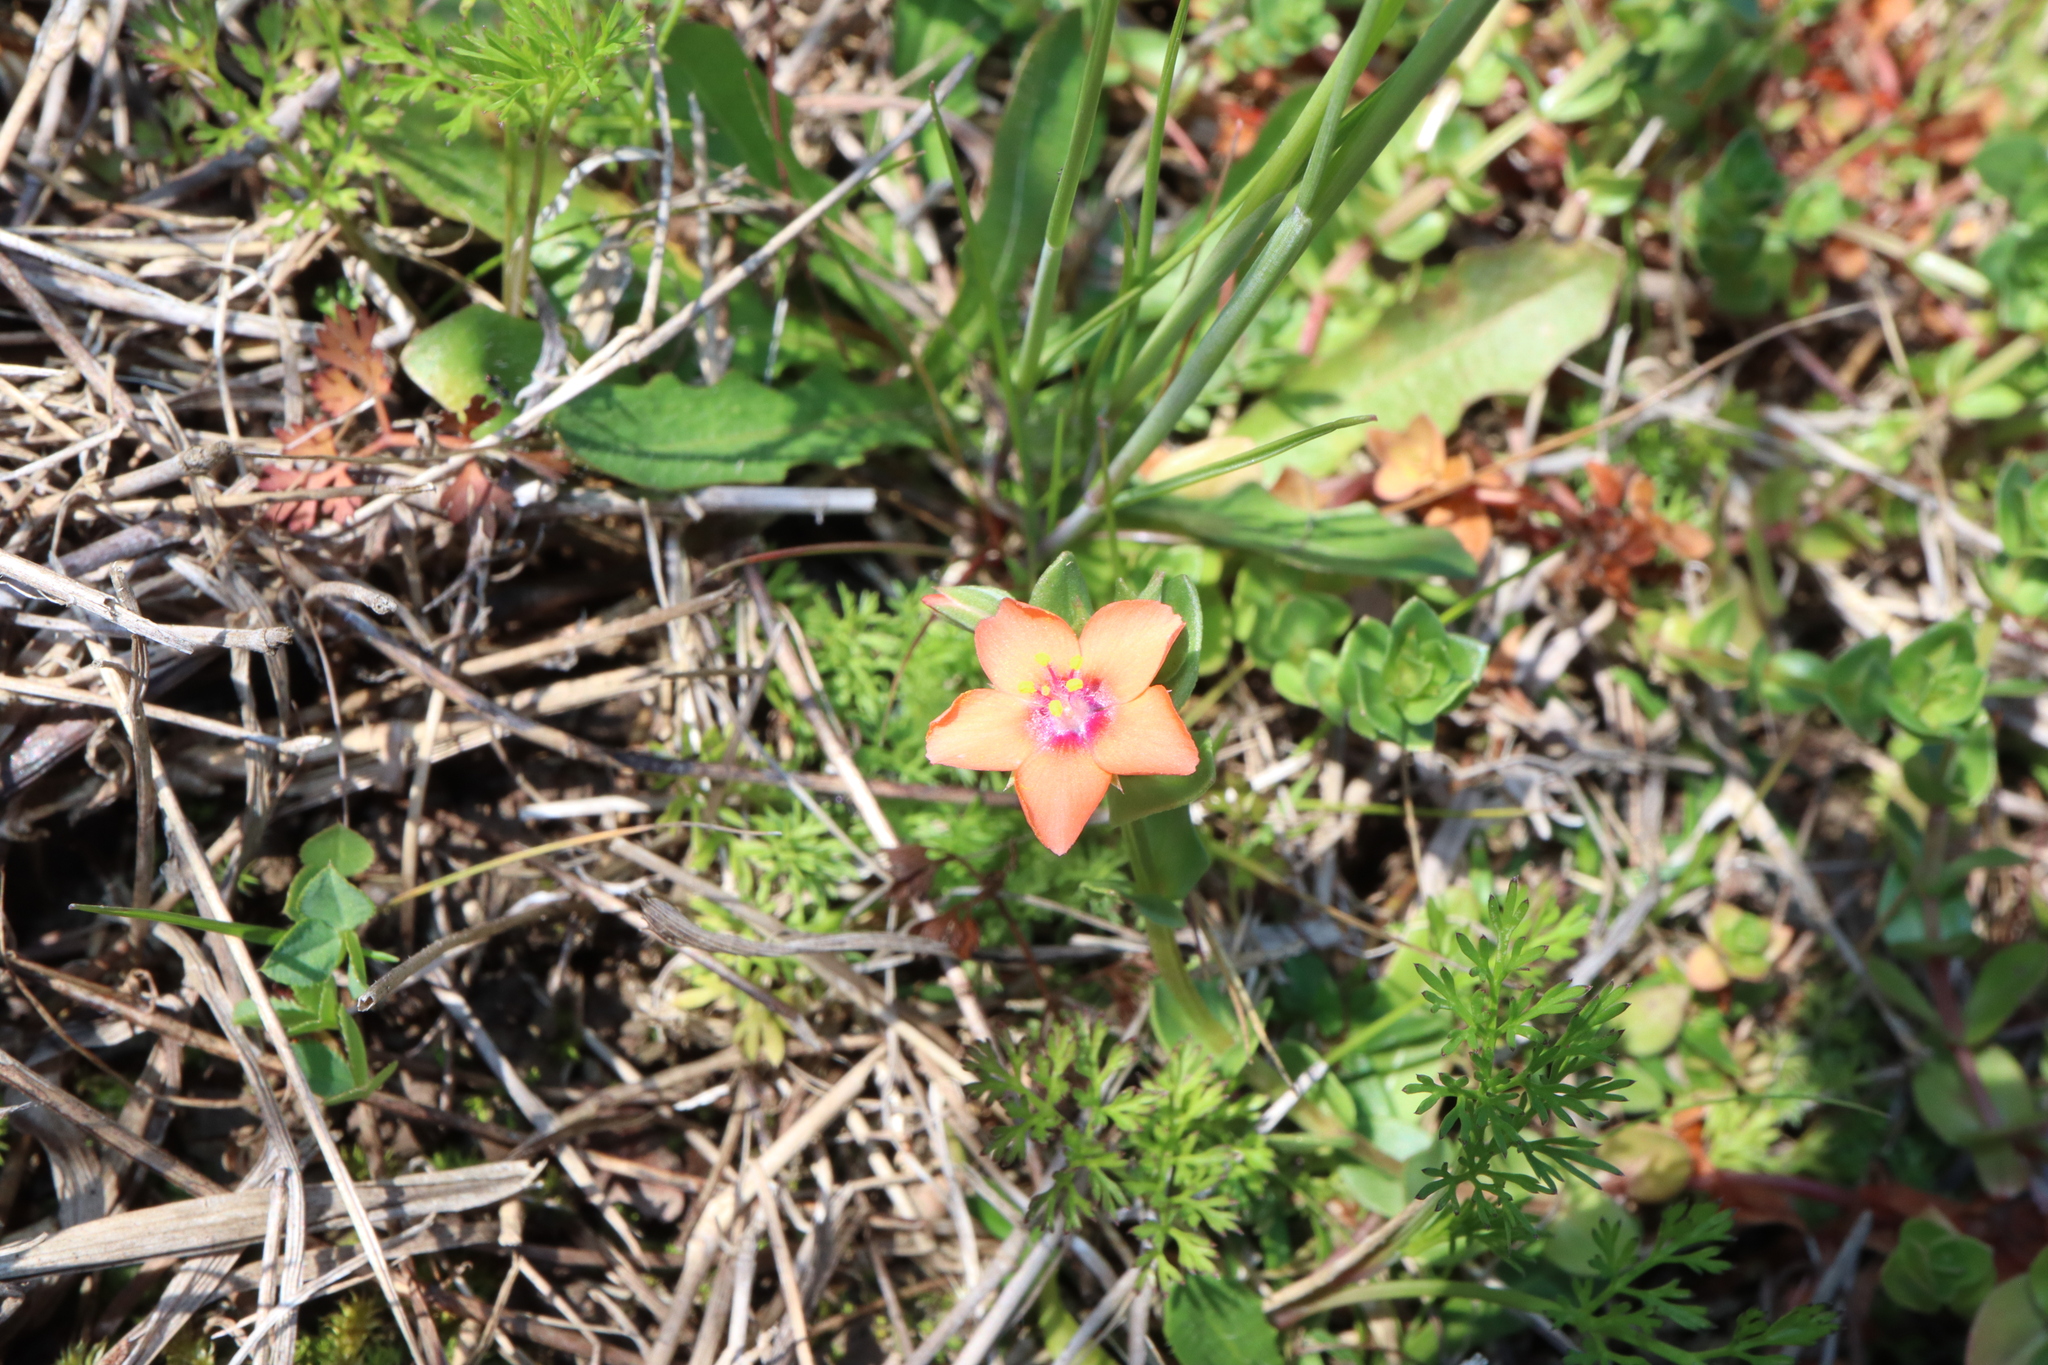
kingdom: Plantae
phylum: Tracheophyta
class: Magnoliopsida
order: Ericales
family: Primulaceae
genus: Lysimachia
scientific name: Lysimachia arvensis
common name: Scarlet pimpernel
